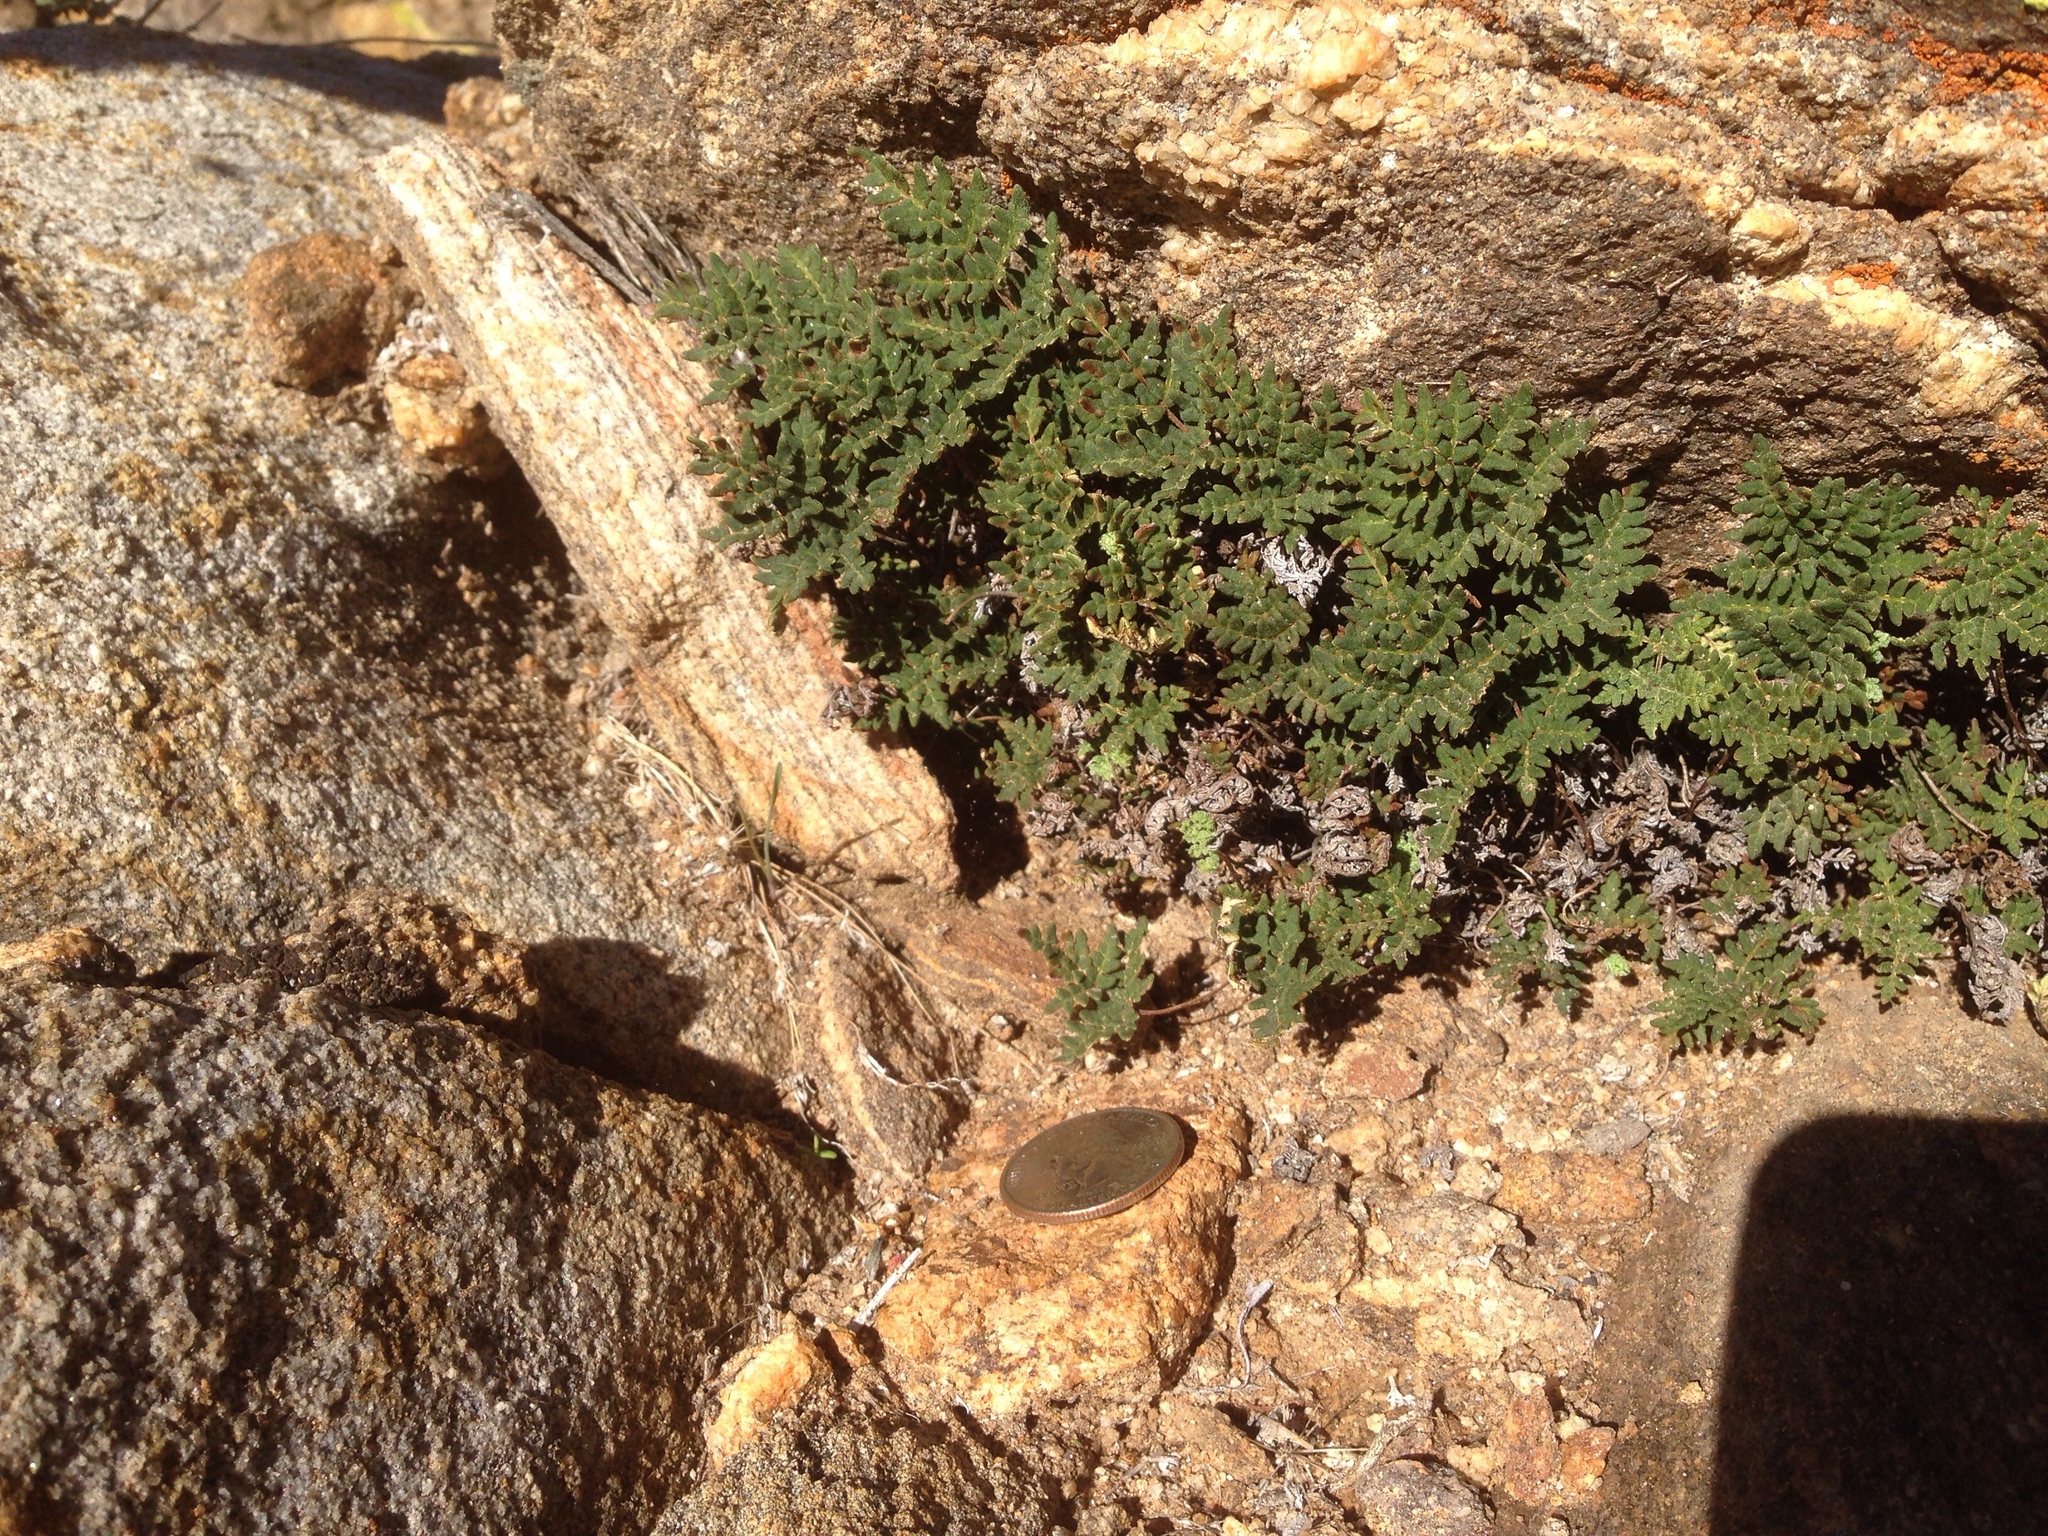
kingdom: Plantae
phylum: Tracheophyta
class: Polypodiopsida
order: Polypodiales
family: Pteridaceae
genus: Notholaena
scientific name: Notholaena californica
